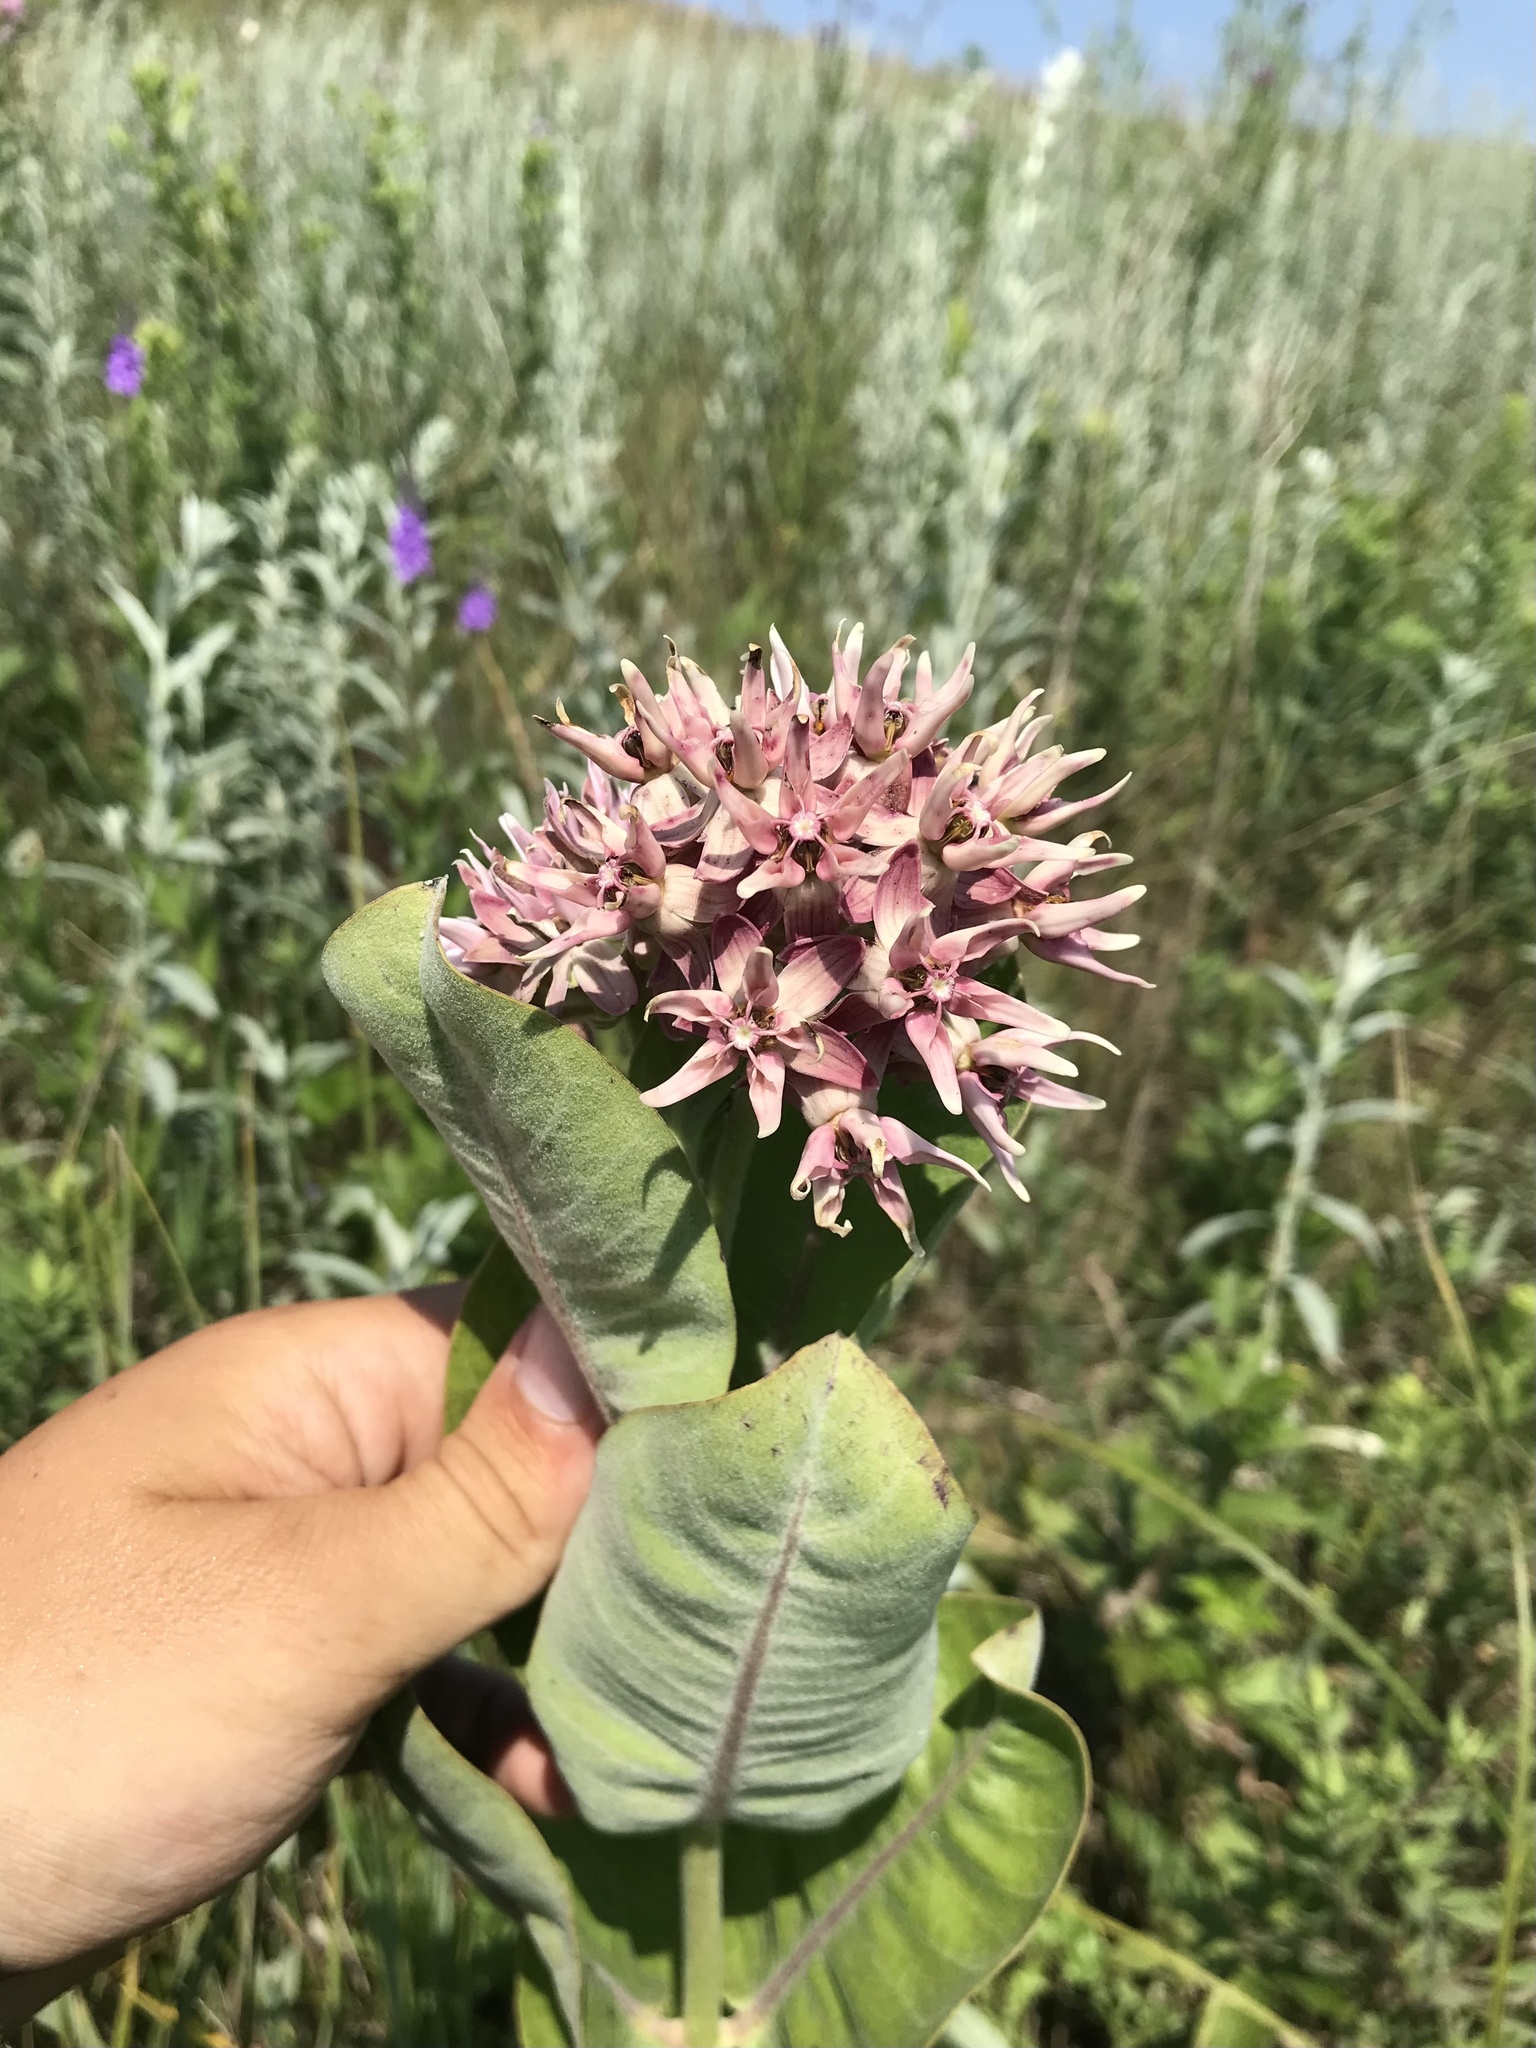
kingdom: Plantae
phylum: Tracheophyta
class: Magnoliopsida
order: Gentianales
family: Apocynaceae
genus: Asclepias
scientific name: Asclepias speciosa
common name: Showy milkweed
